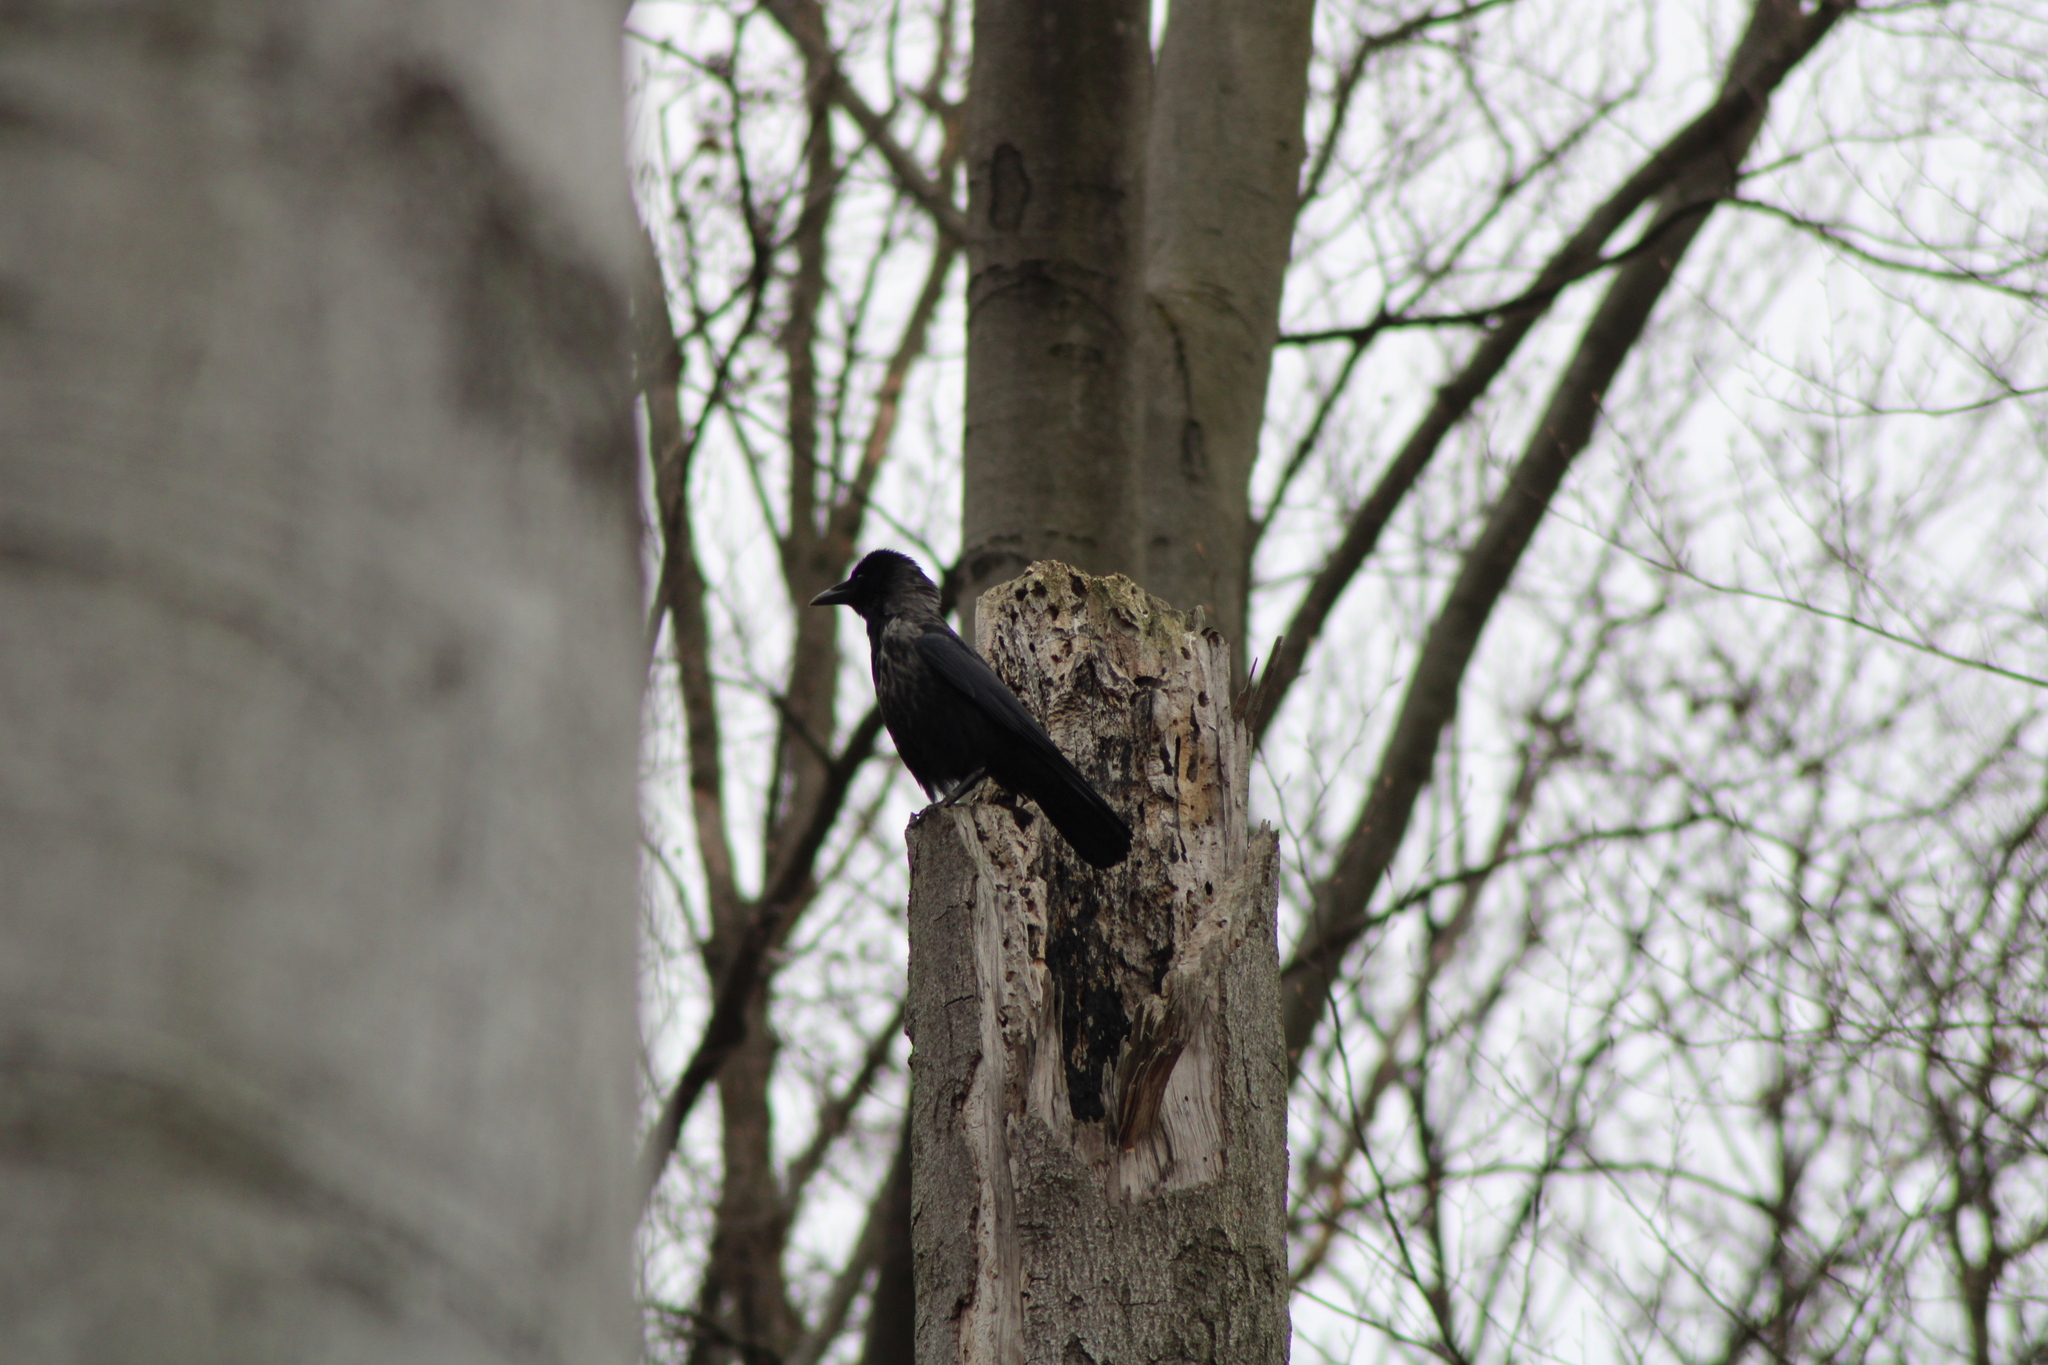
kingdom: Animalia
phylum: Chordata
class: Aves
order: Passeriformes
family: Corvidae
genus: Corvus
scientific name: Corvus
